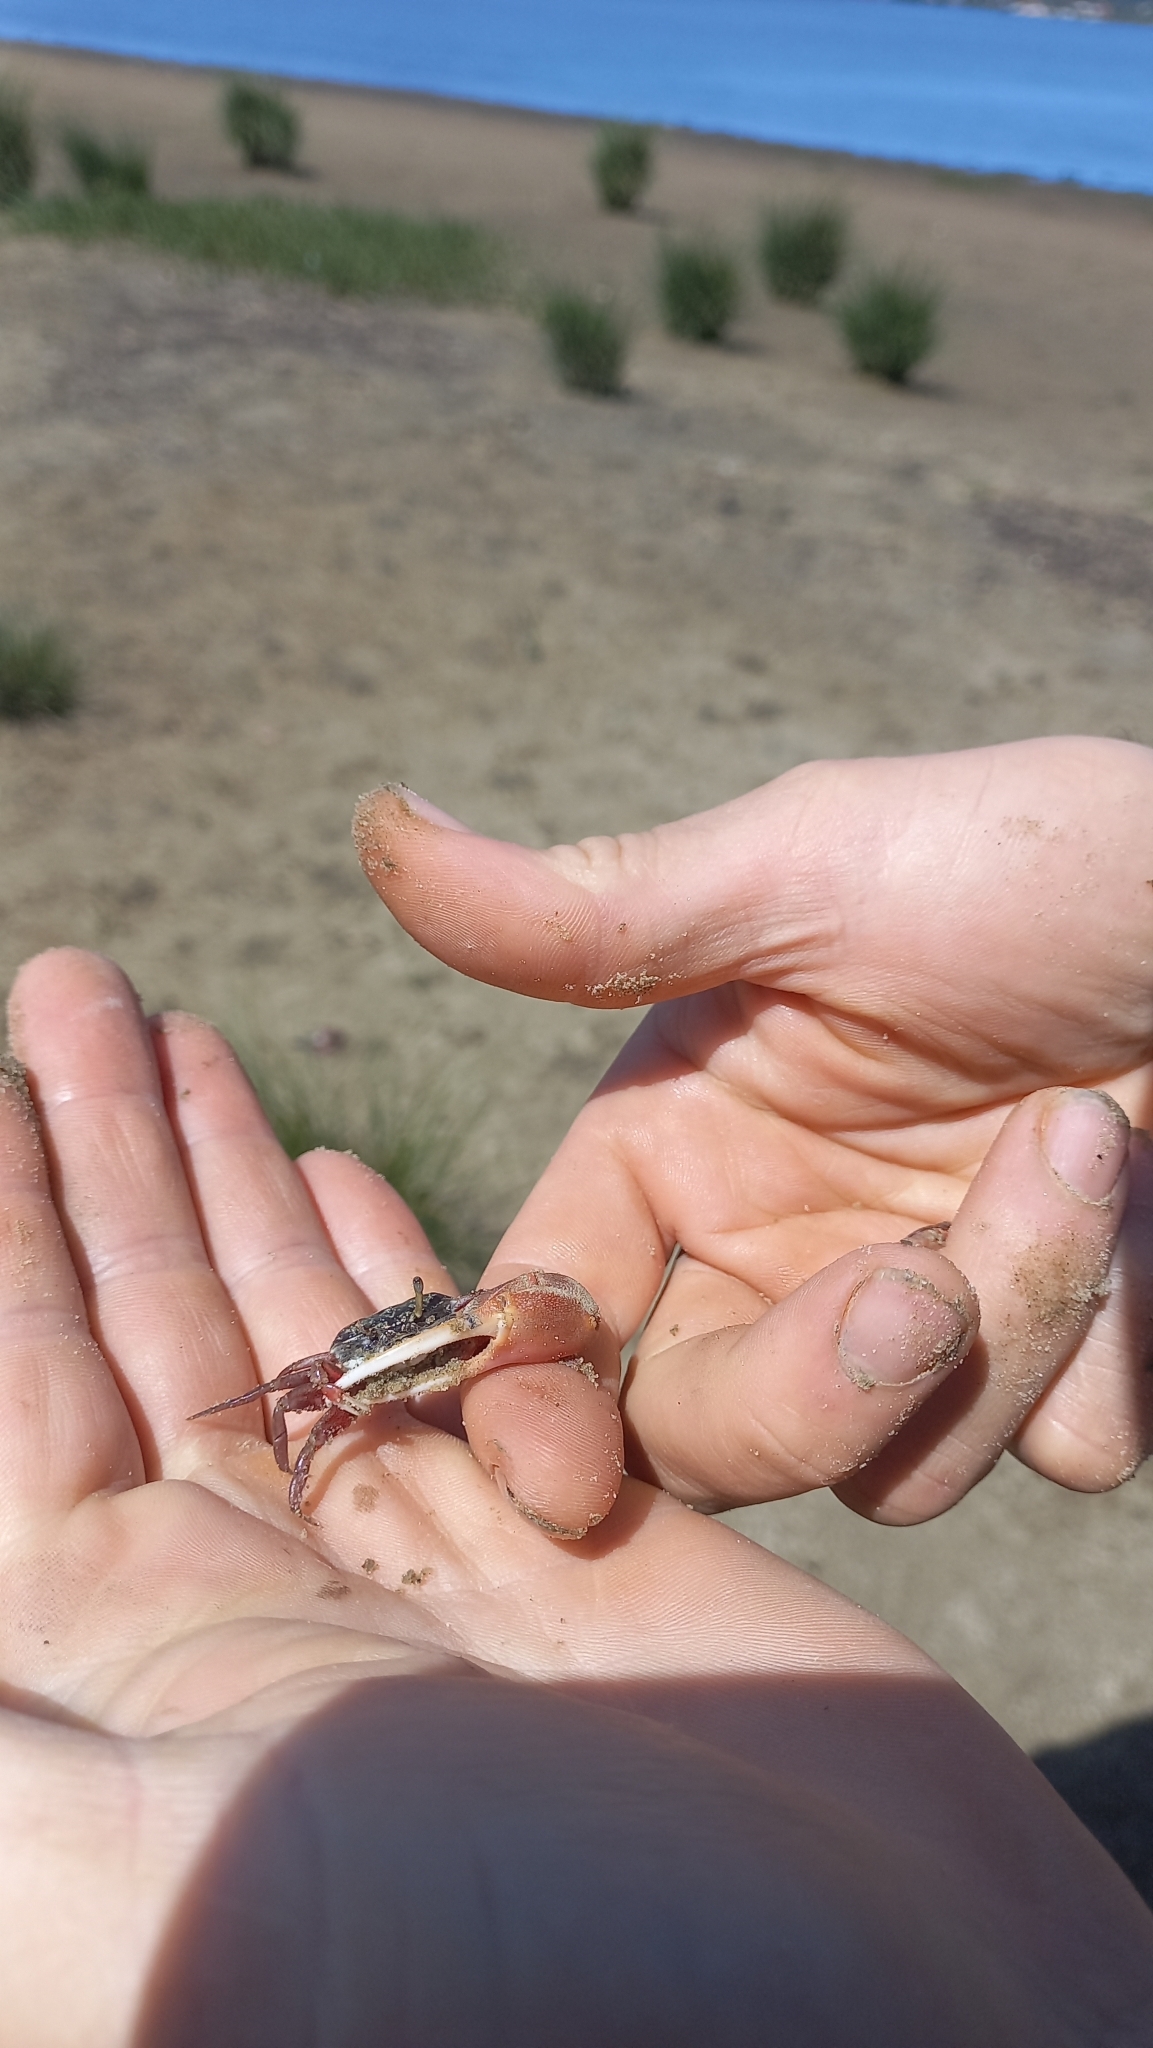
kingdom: Animalia
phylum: Arthropoda
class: Malacostraca
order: Decapoda
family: Ocypodidae
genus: Leptuca
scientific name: Leptuca uruguayensis
